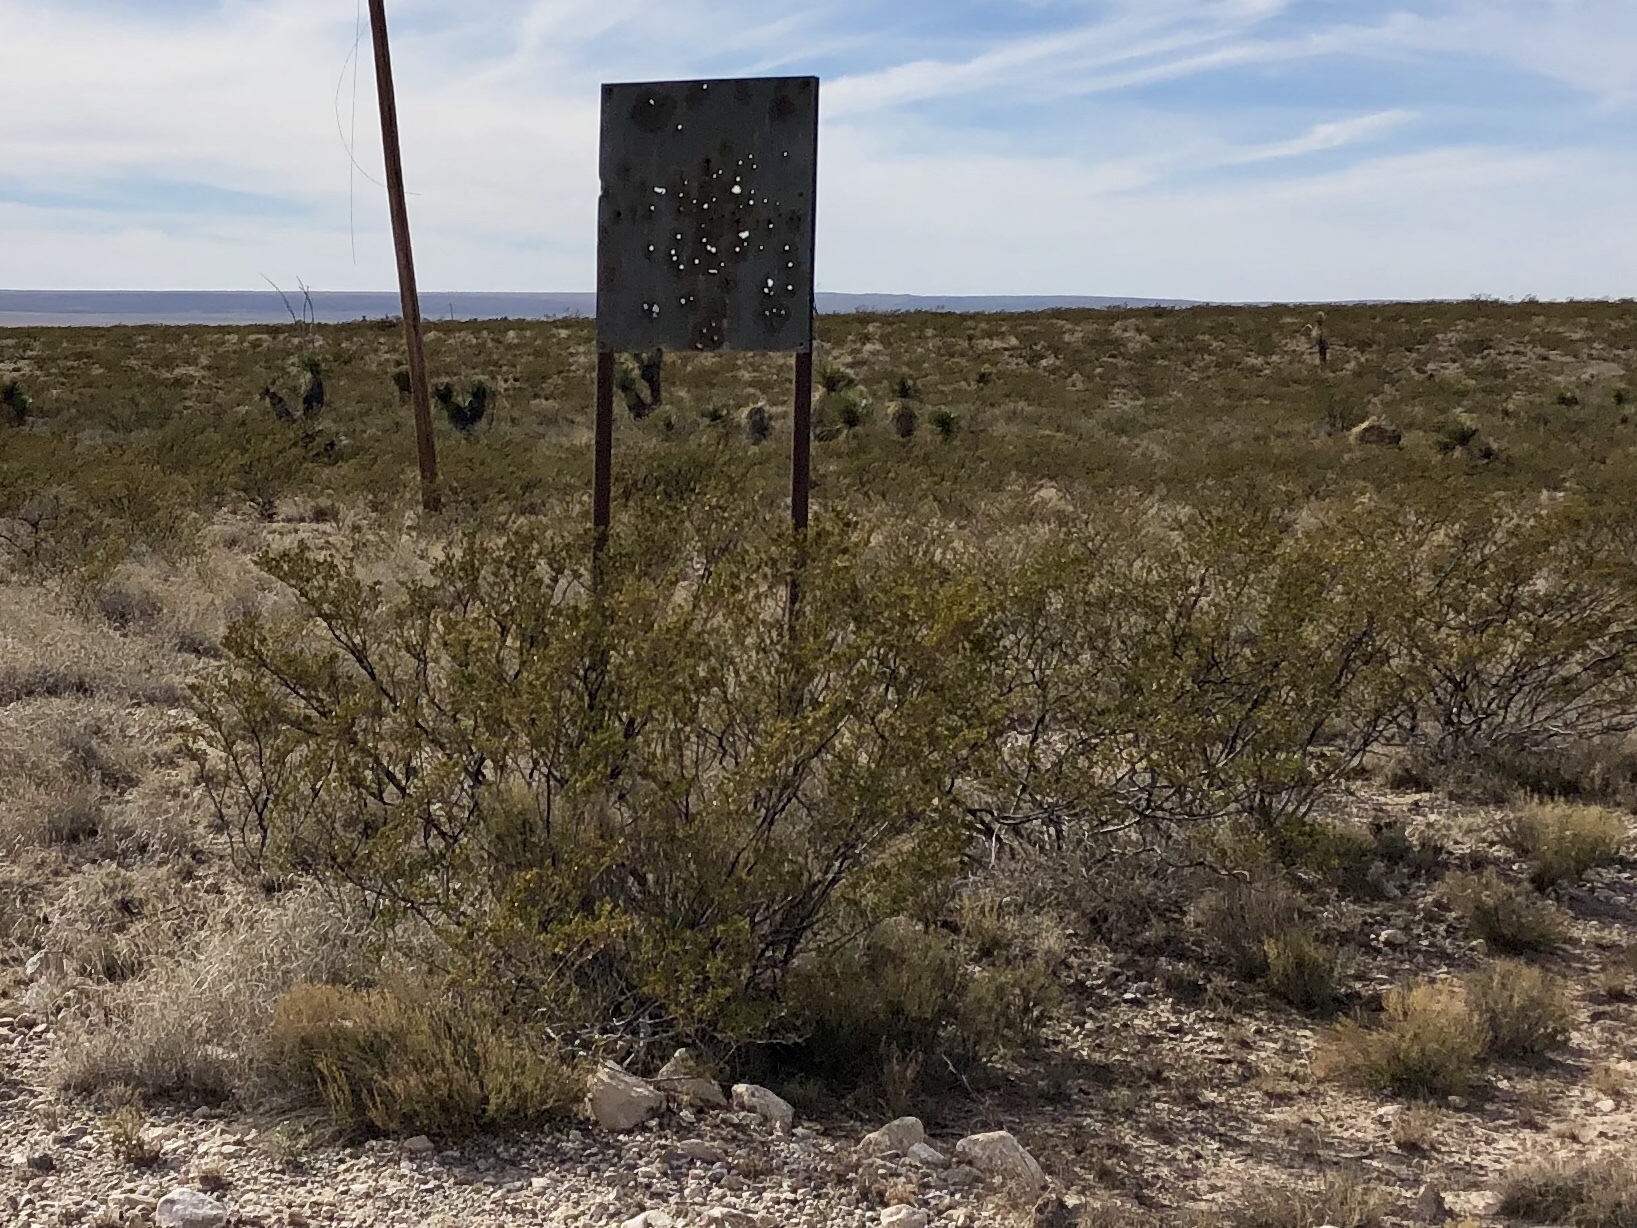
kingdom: Plantae
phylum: Tracheophyta
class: Magnoliopsida
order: Zygophyllales
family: Zygophyllaceae
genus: Larrea
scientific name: Larrea tridentata
